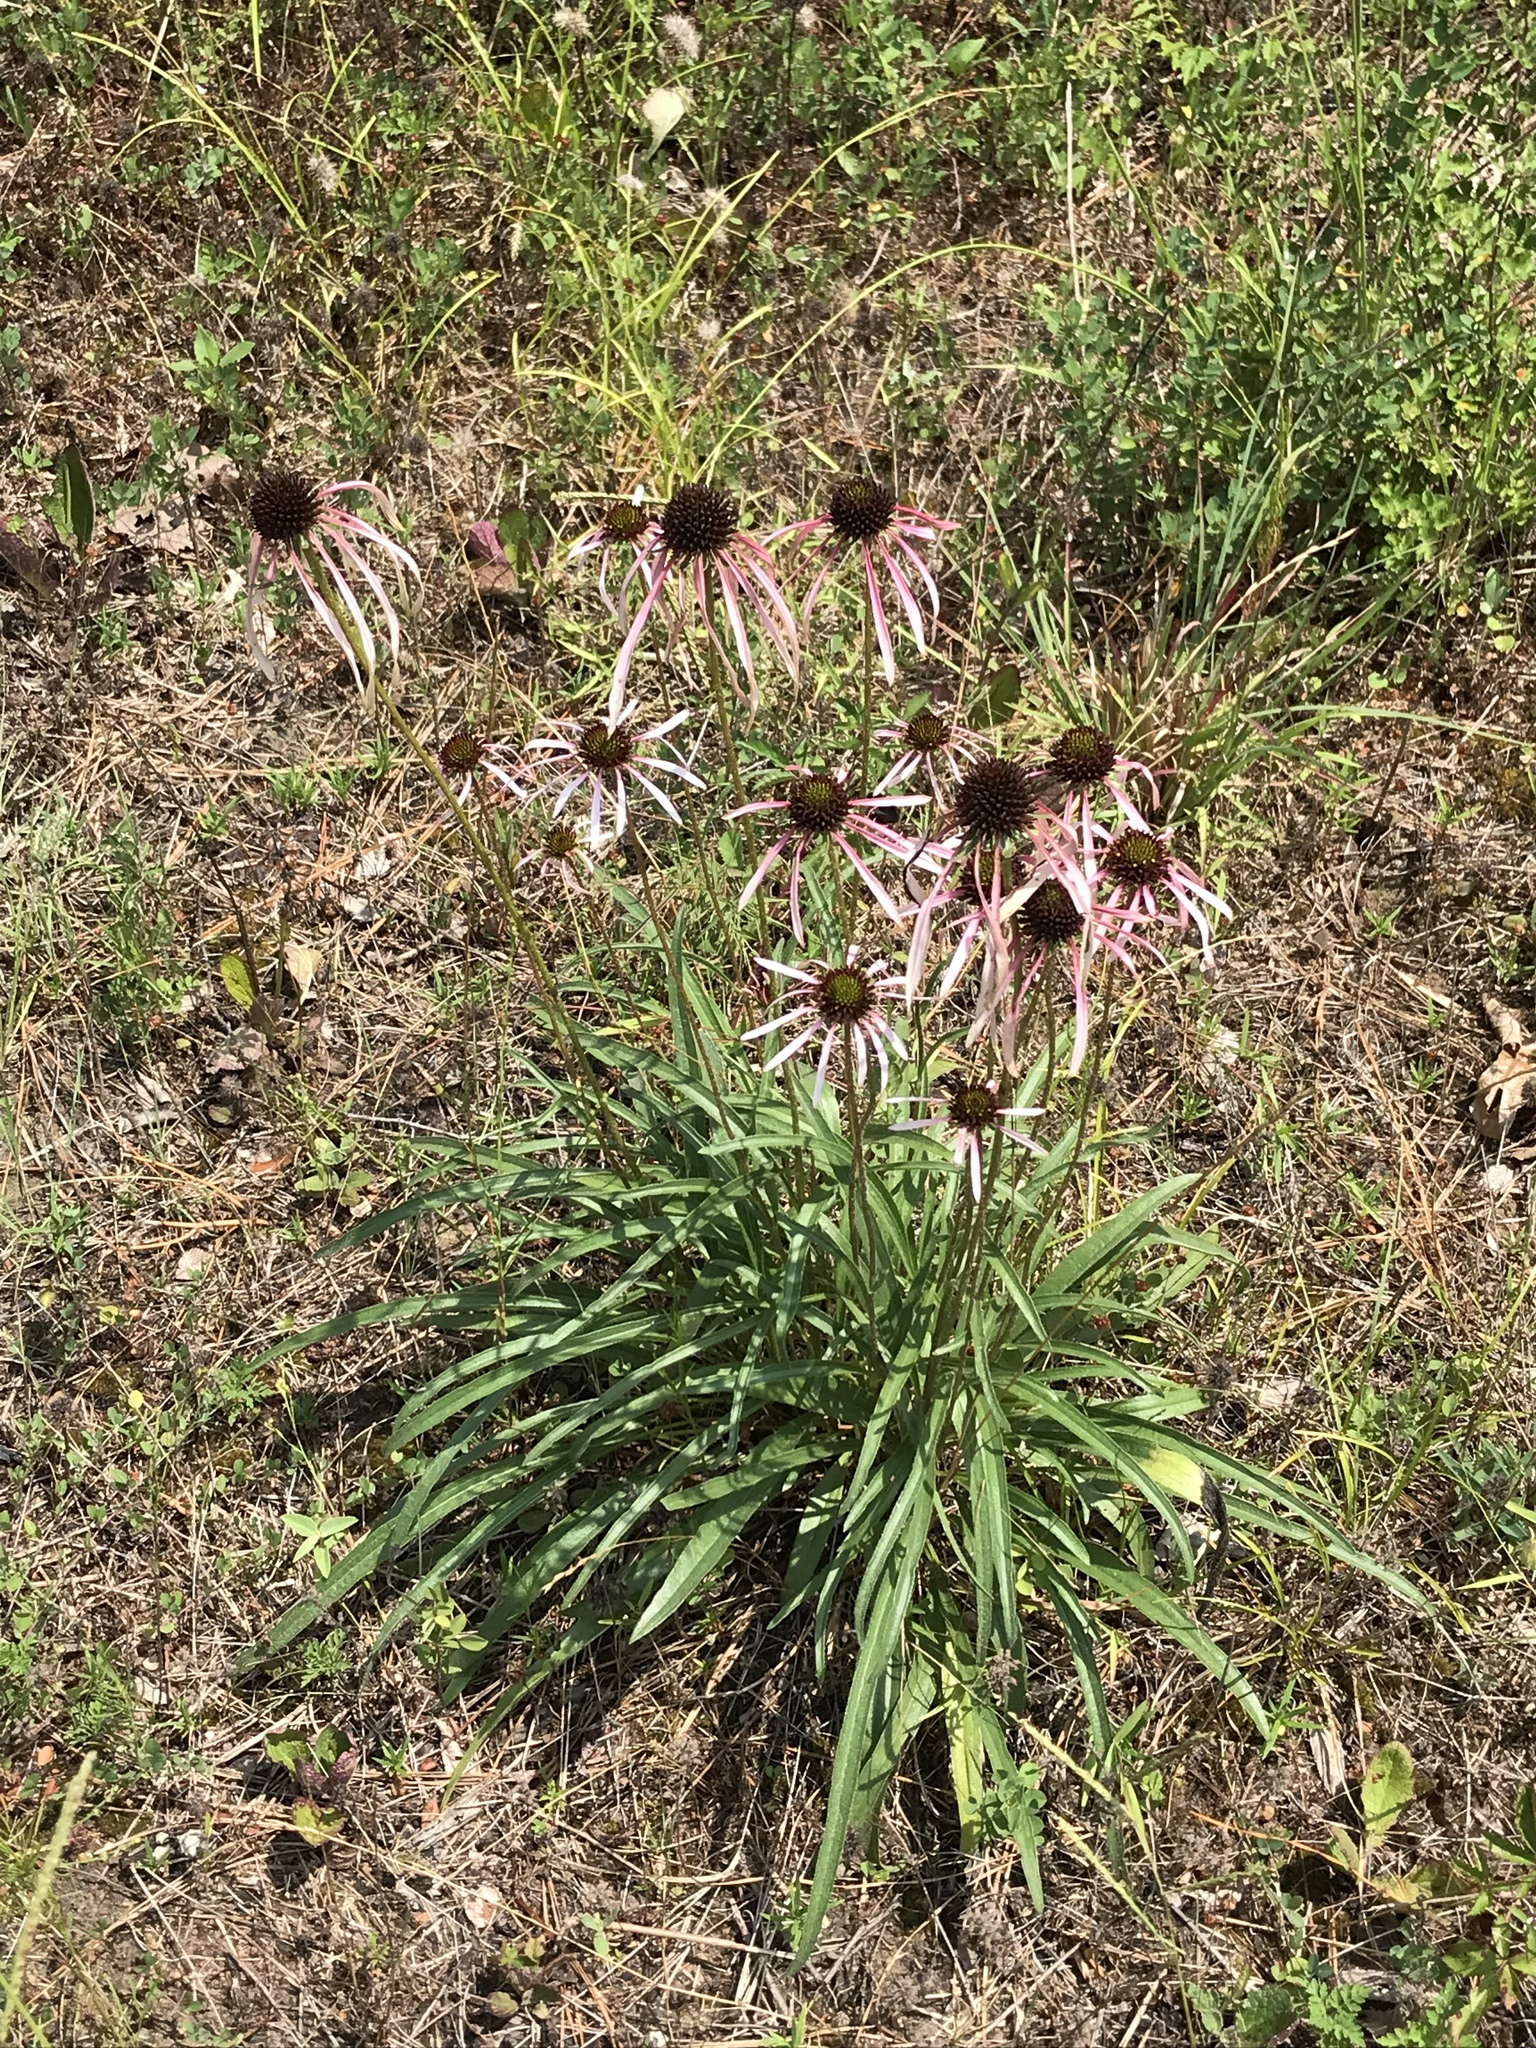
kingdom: Plantae
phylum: Tracheophyta
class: Magnoliopsida
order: Asterales
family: Asteraceae
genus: Echinacea
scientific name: Echinacea sanguinea
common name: Sanguine purple-coneflower
